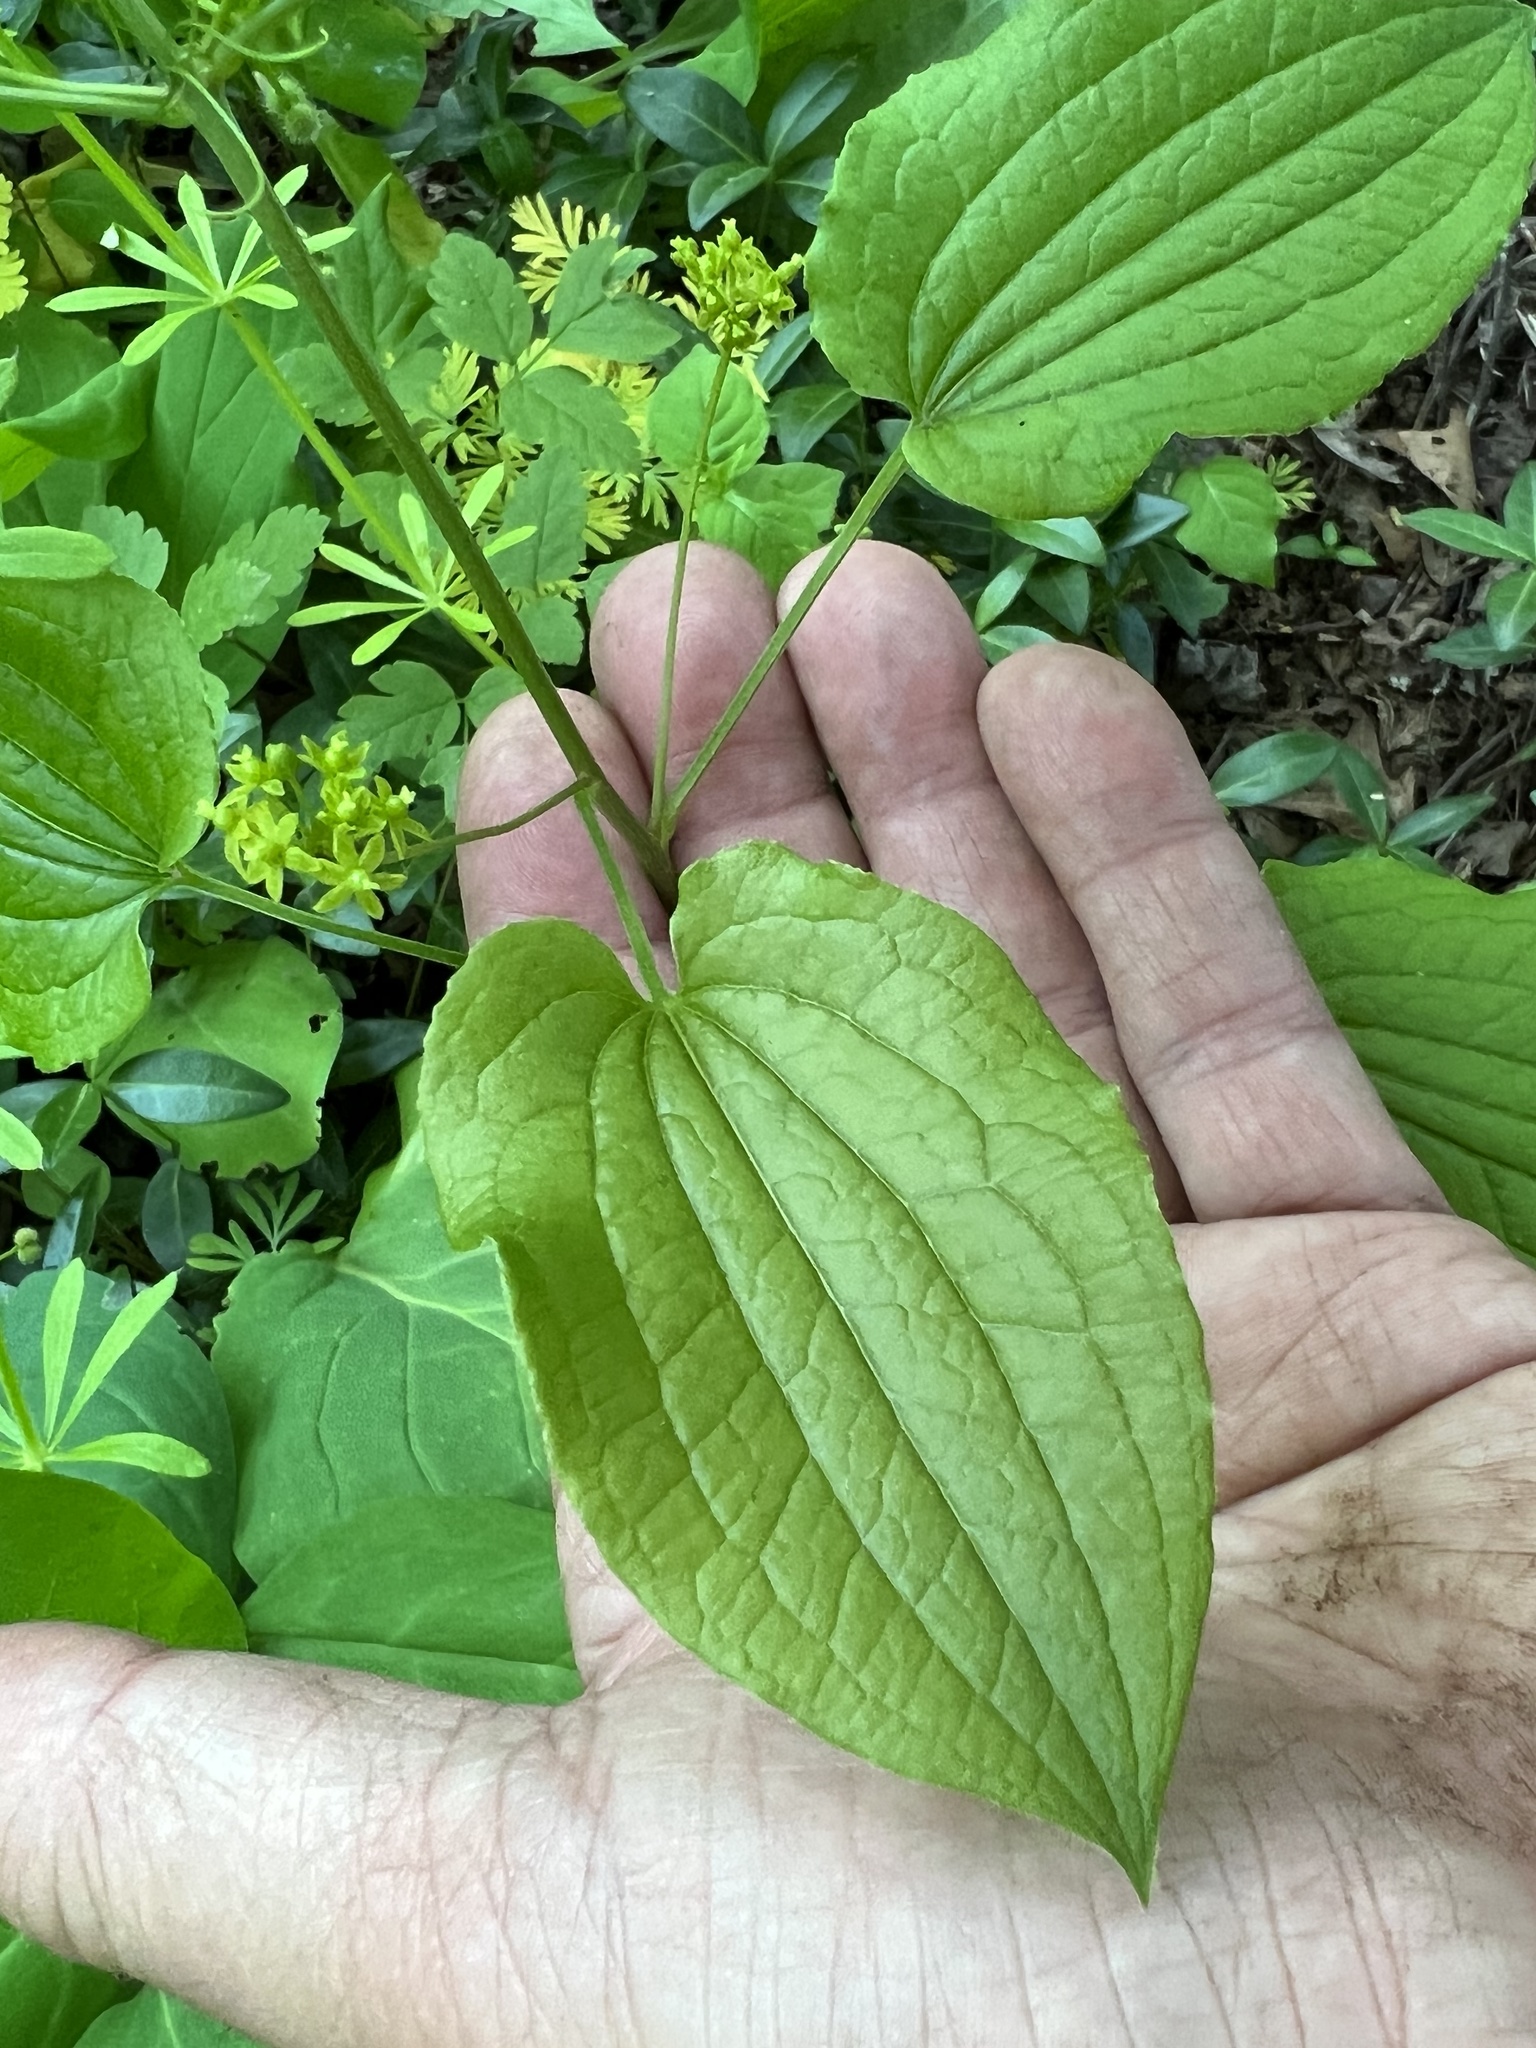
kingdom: Plantae
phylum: Tracheophyta
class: Liliopsida
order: Liliales
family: Smilacaceae
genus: Smilax
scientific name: Smilax pulverulenta
